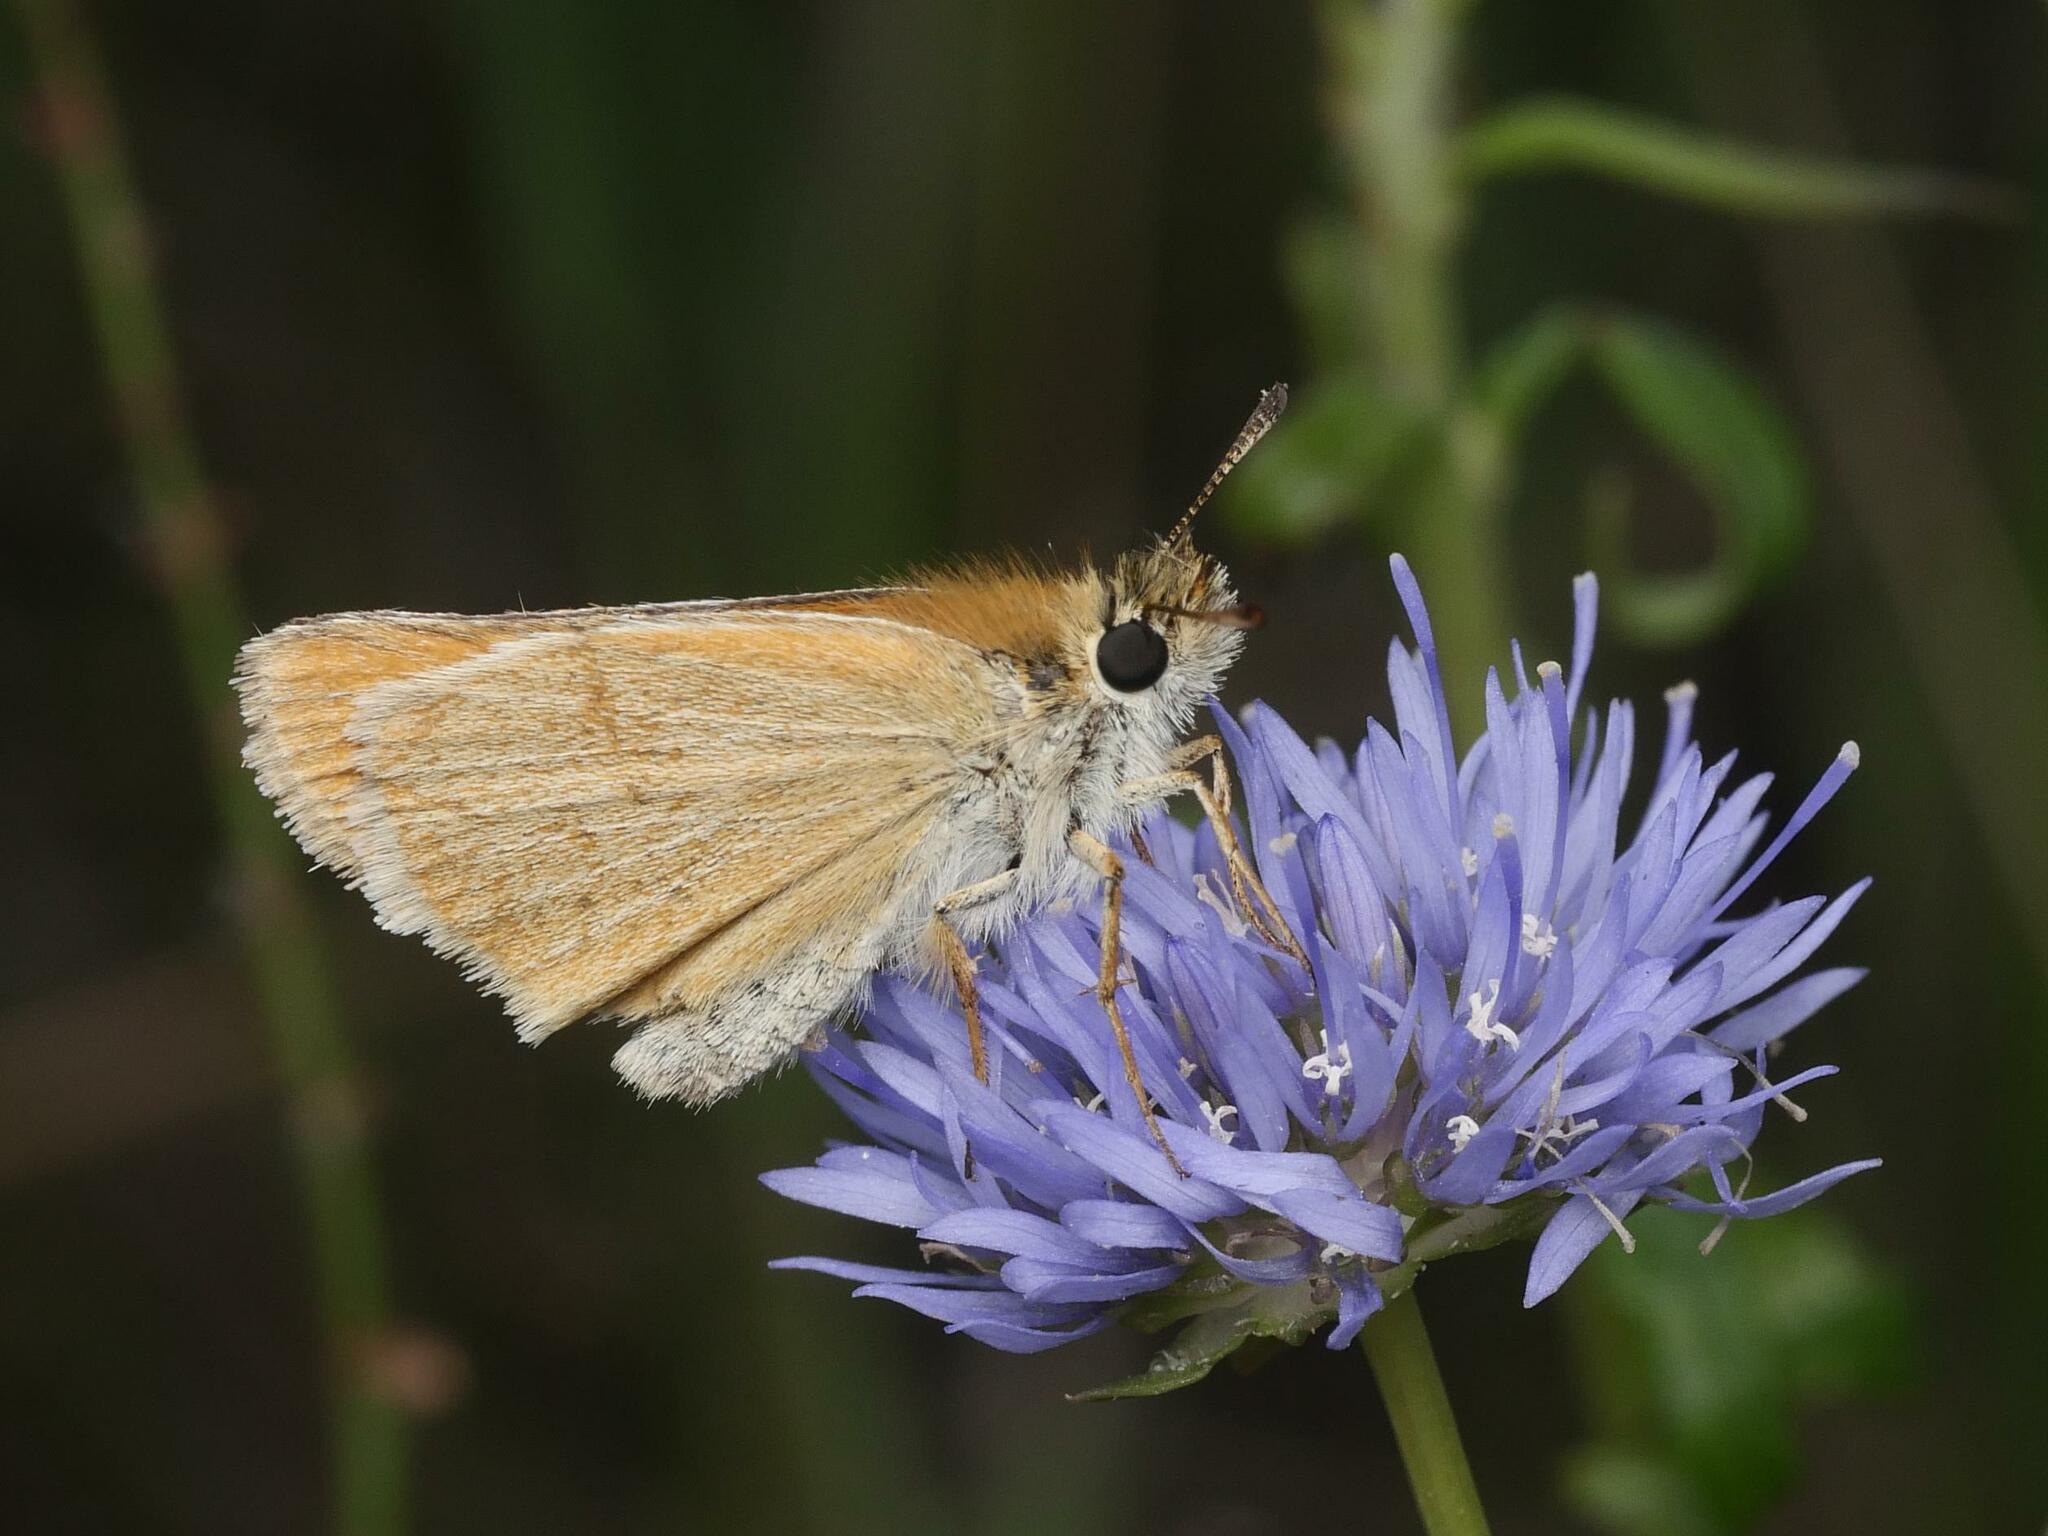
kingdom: Animalia
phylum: Arthropoda
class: Insecta
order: Lepidoptera
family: Hesperiidae
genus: Thymelicus
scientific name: Thymelicus lineola
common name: Essex skipper
